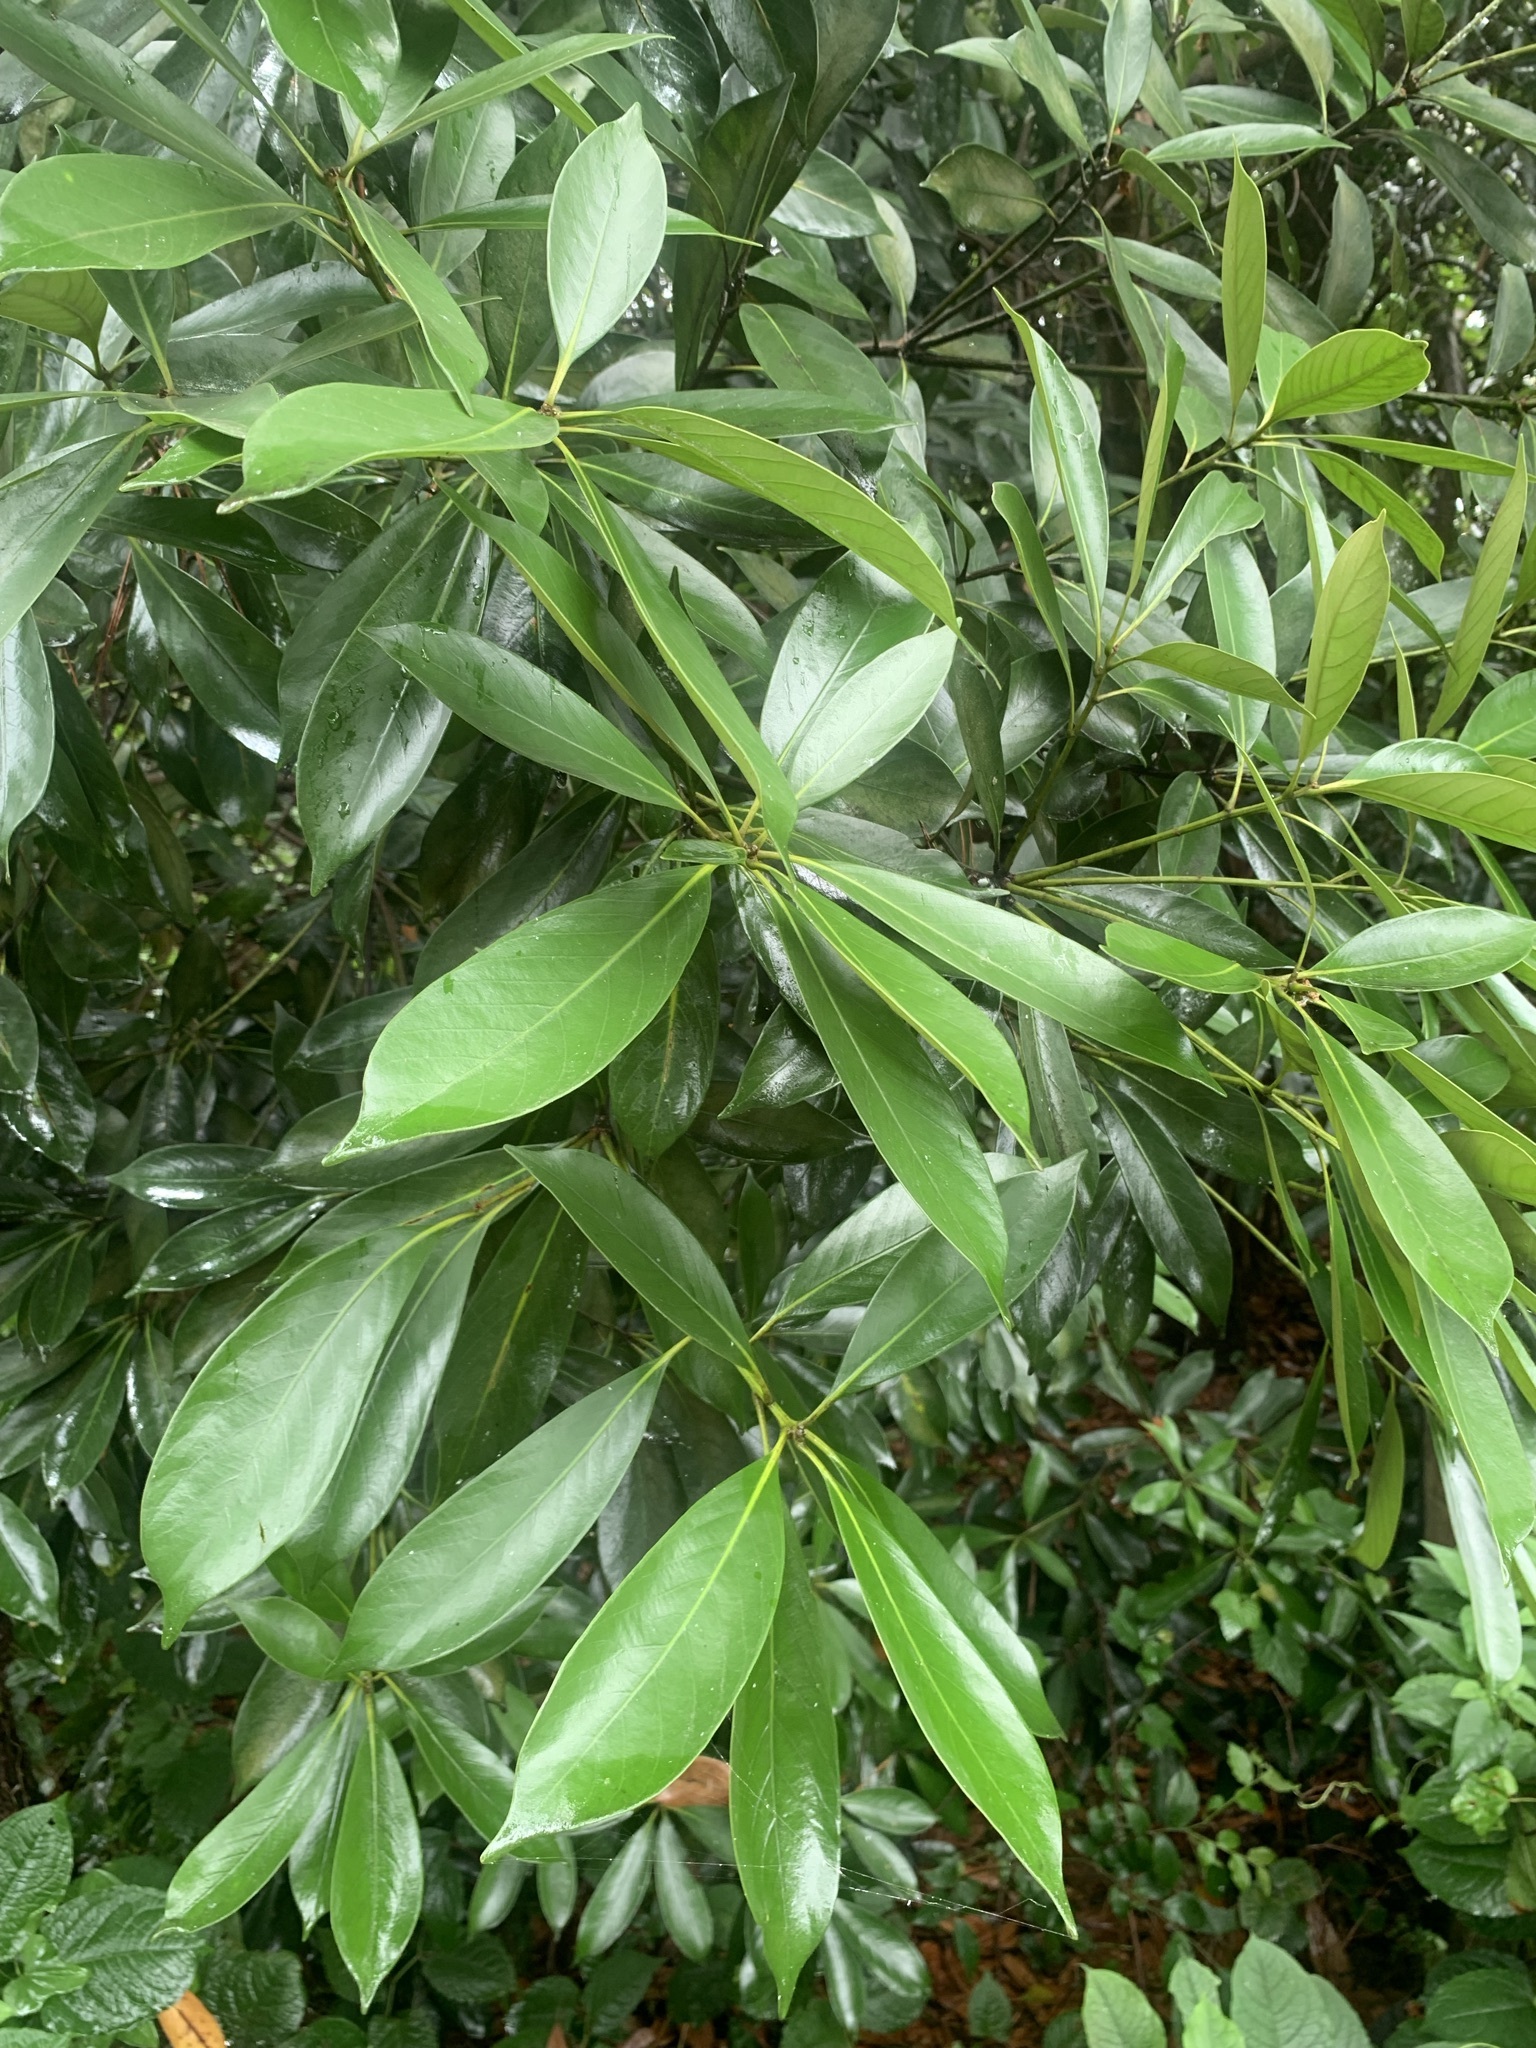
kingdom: Plantae
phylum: Tracheophyta
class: Magnoliopsida
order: Fagales
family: Fagaceae
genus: Lithocarpus
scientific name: Lithocarpus edulis
